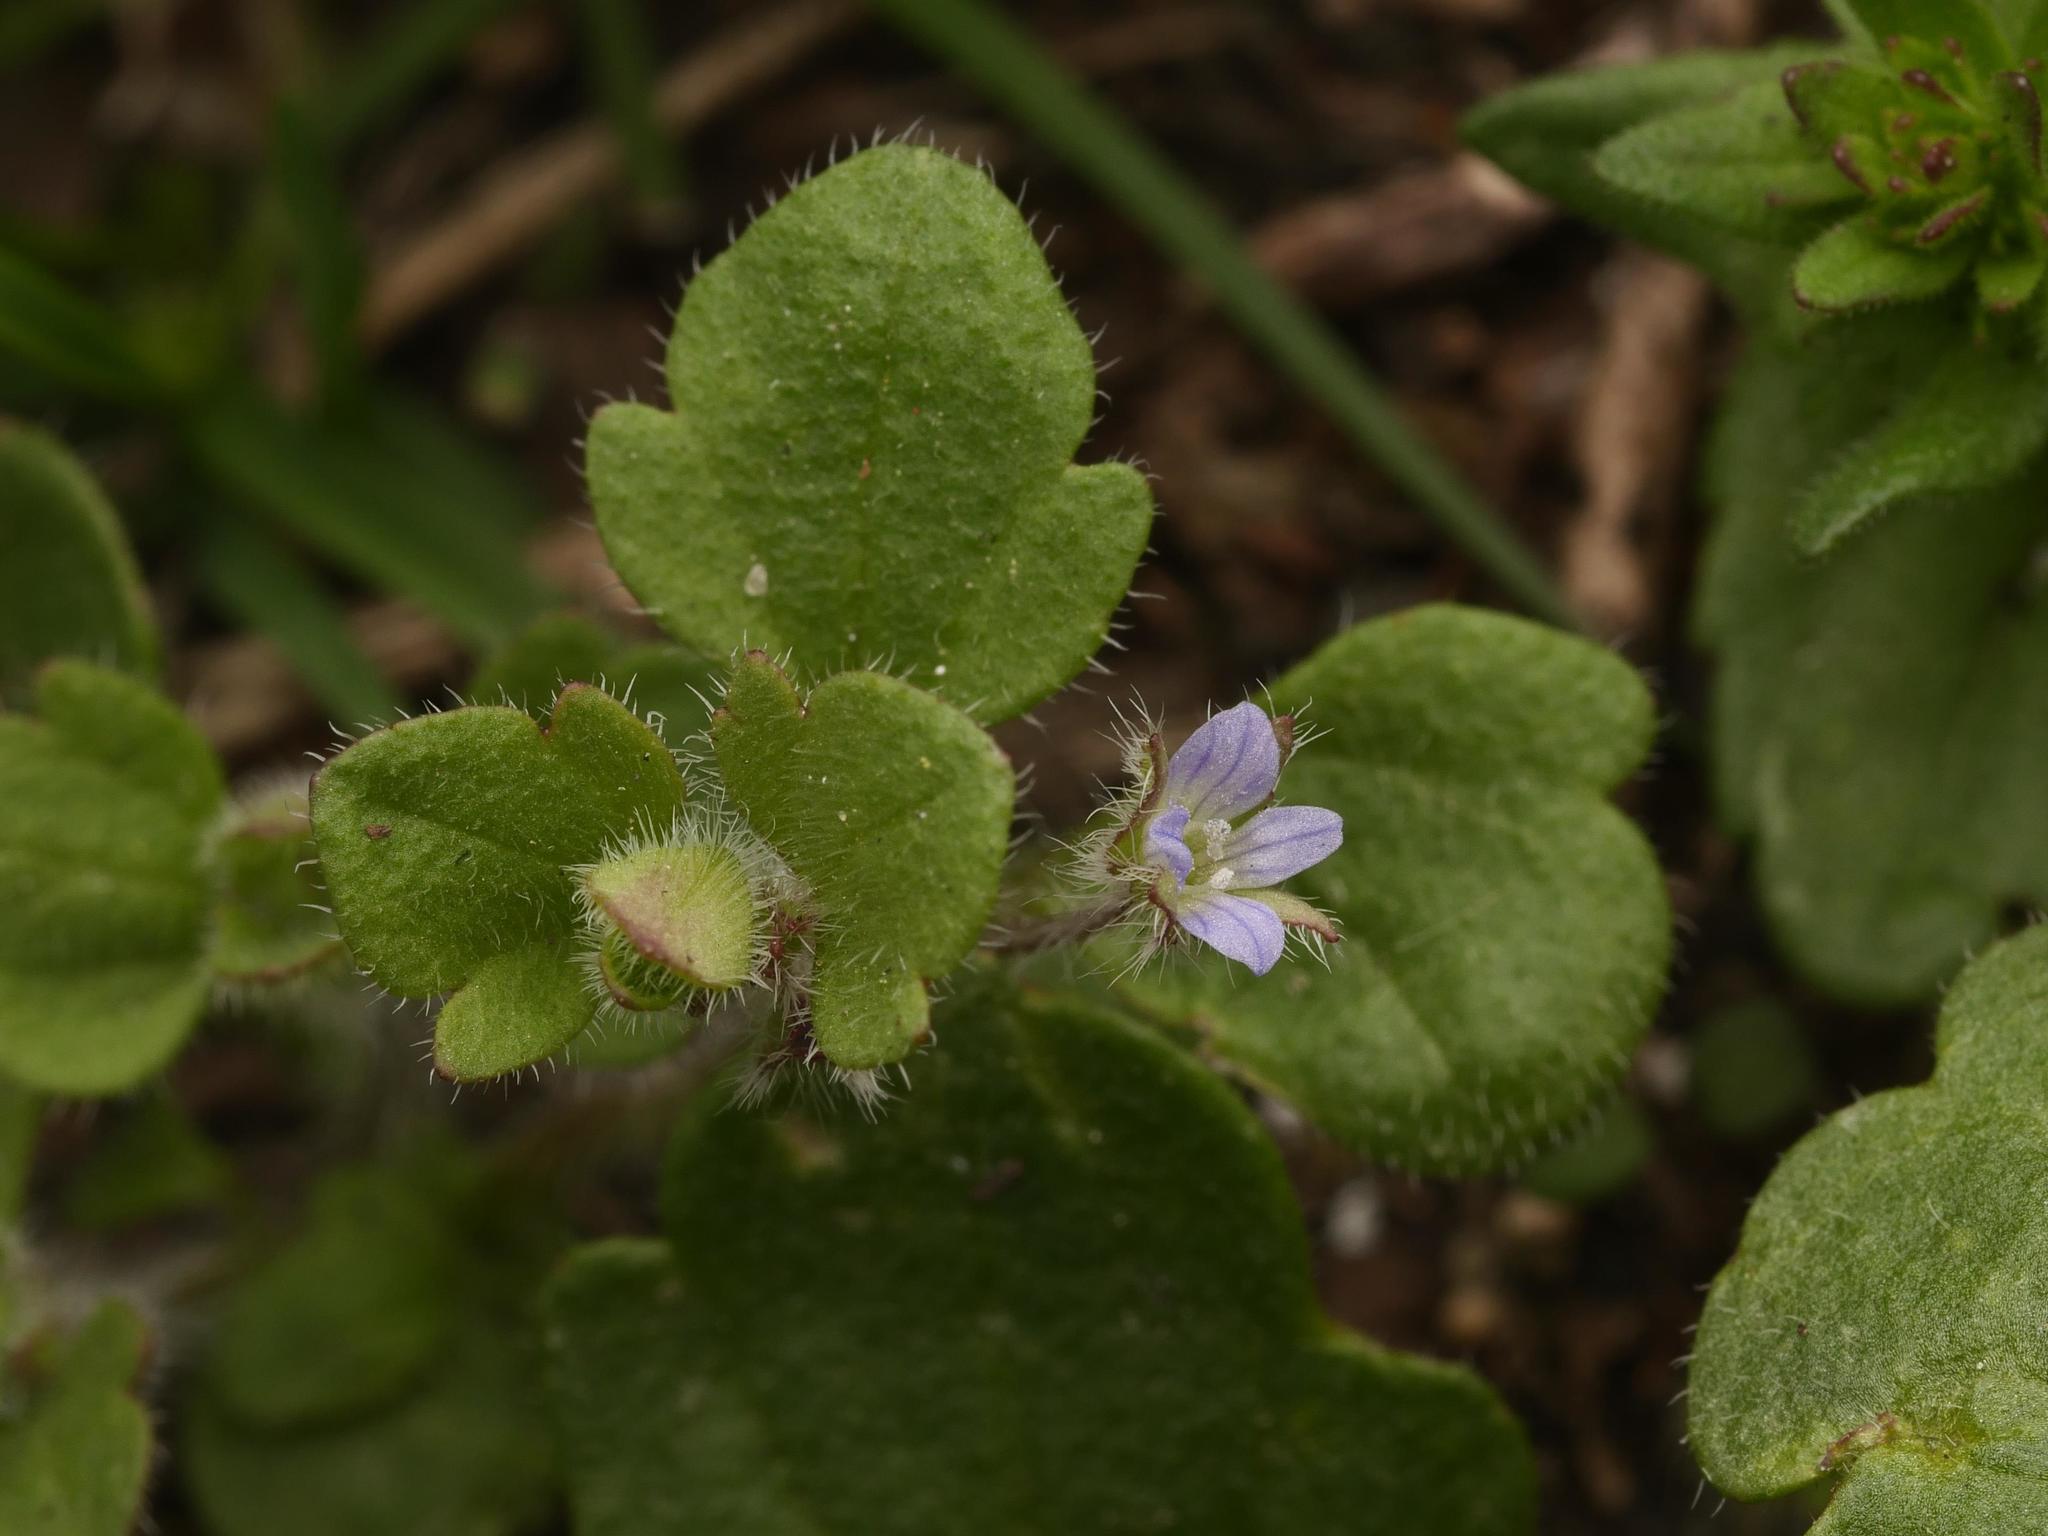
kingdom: Plantae
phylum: Tracheophyta
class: Magnoliopsida
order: Lamiales
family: Plantaginaceae
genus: Veronica
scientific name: Veronica sublobata
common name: False ivy-leaved speedwell
